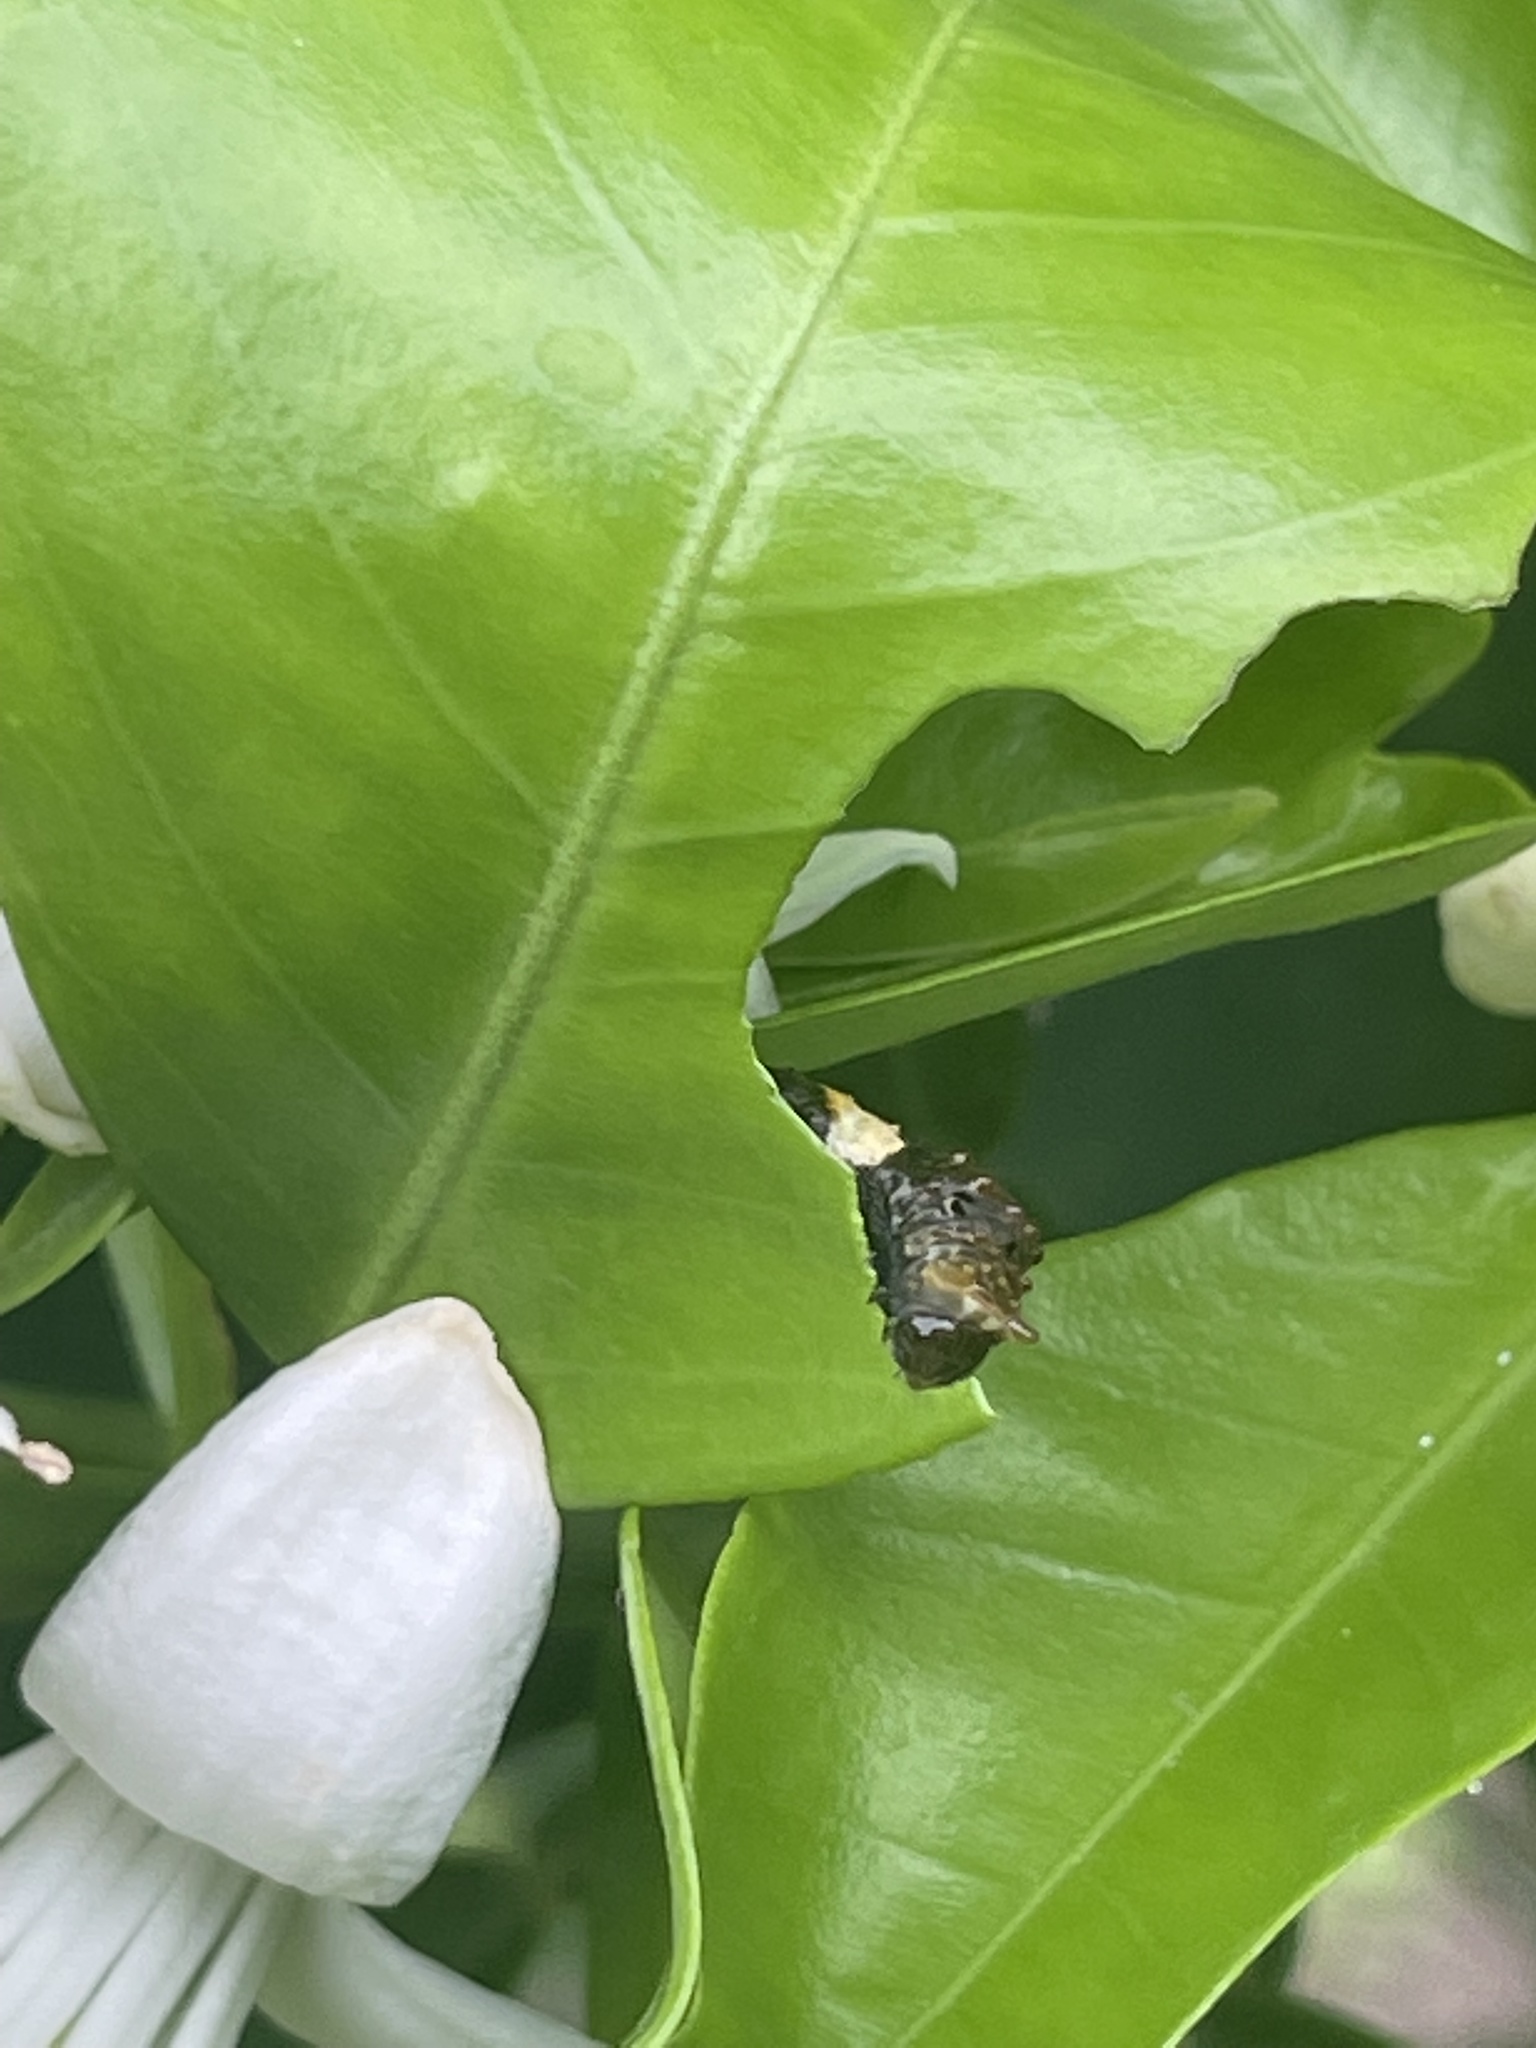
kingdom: Animalia
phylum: Arthropoda
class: Insecta
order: Lepidoptera
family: Papilionidae
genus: Papilio
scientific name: Papilio cresphontes
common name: Giant swallowtail
